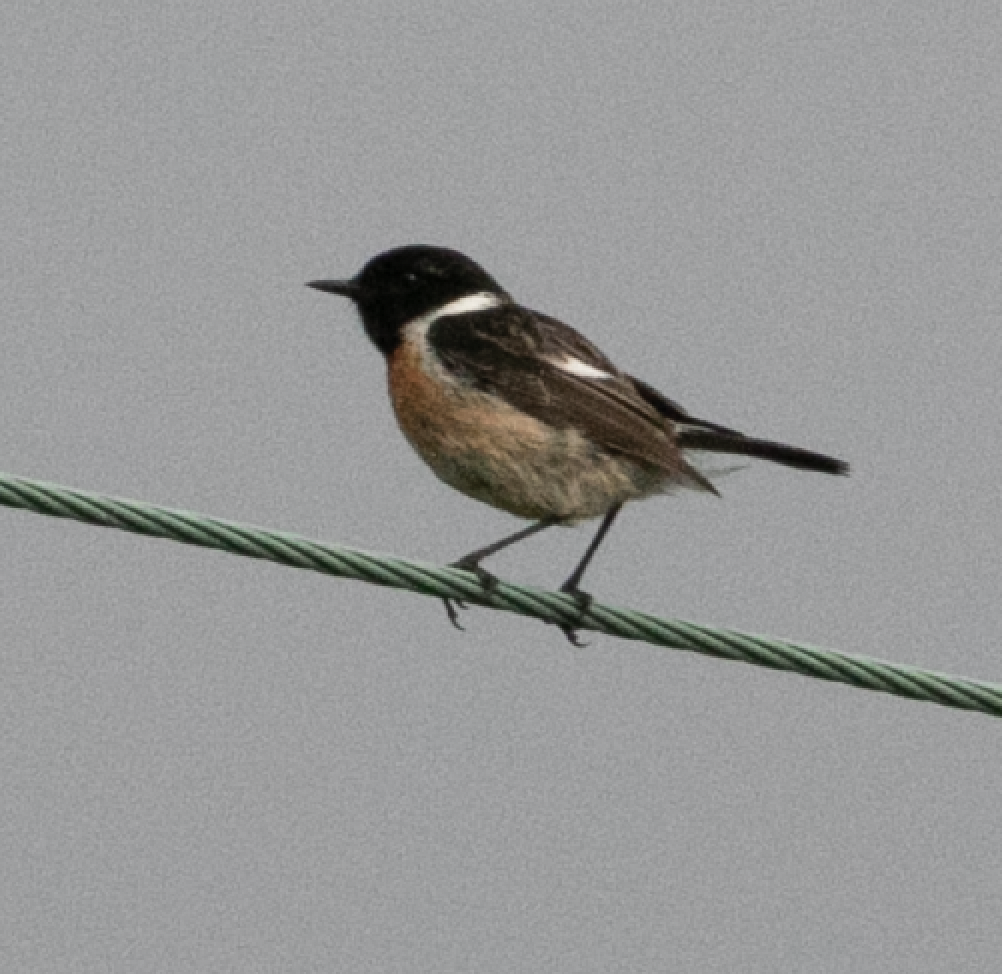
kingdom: Animalia
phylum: Chordata
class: Aves
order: Passeriformes
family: Muscicapidae
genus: Saxicola
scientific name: Saxicola rubicola
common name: European stonechat
